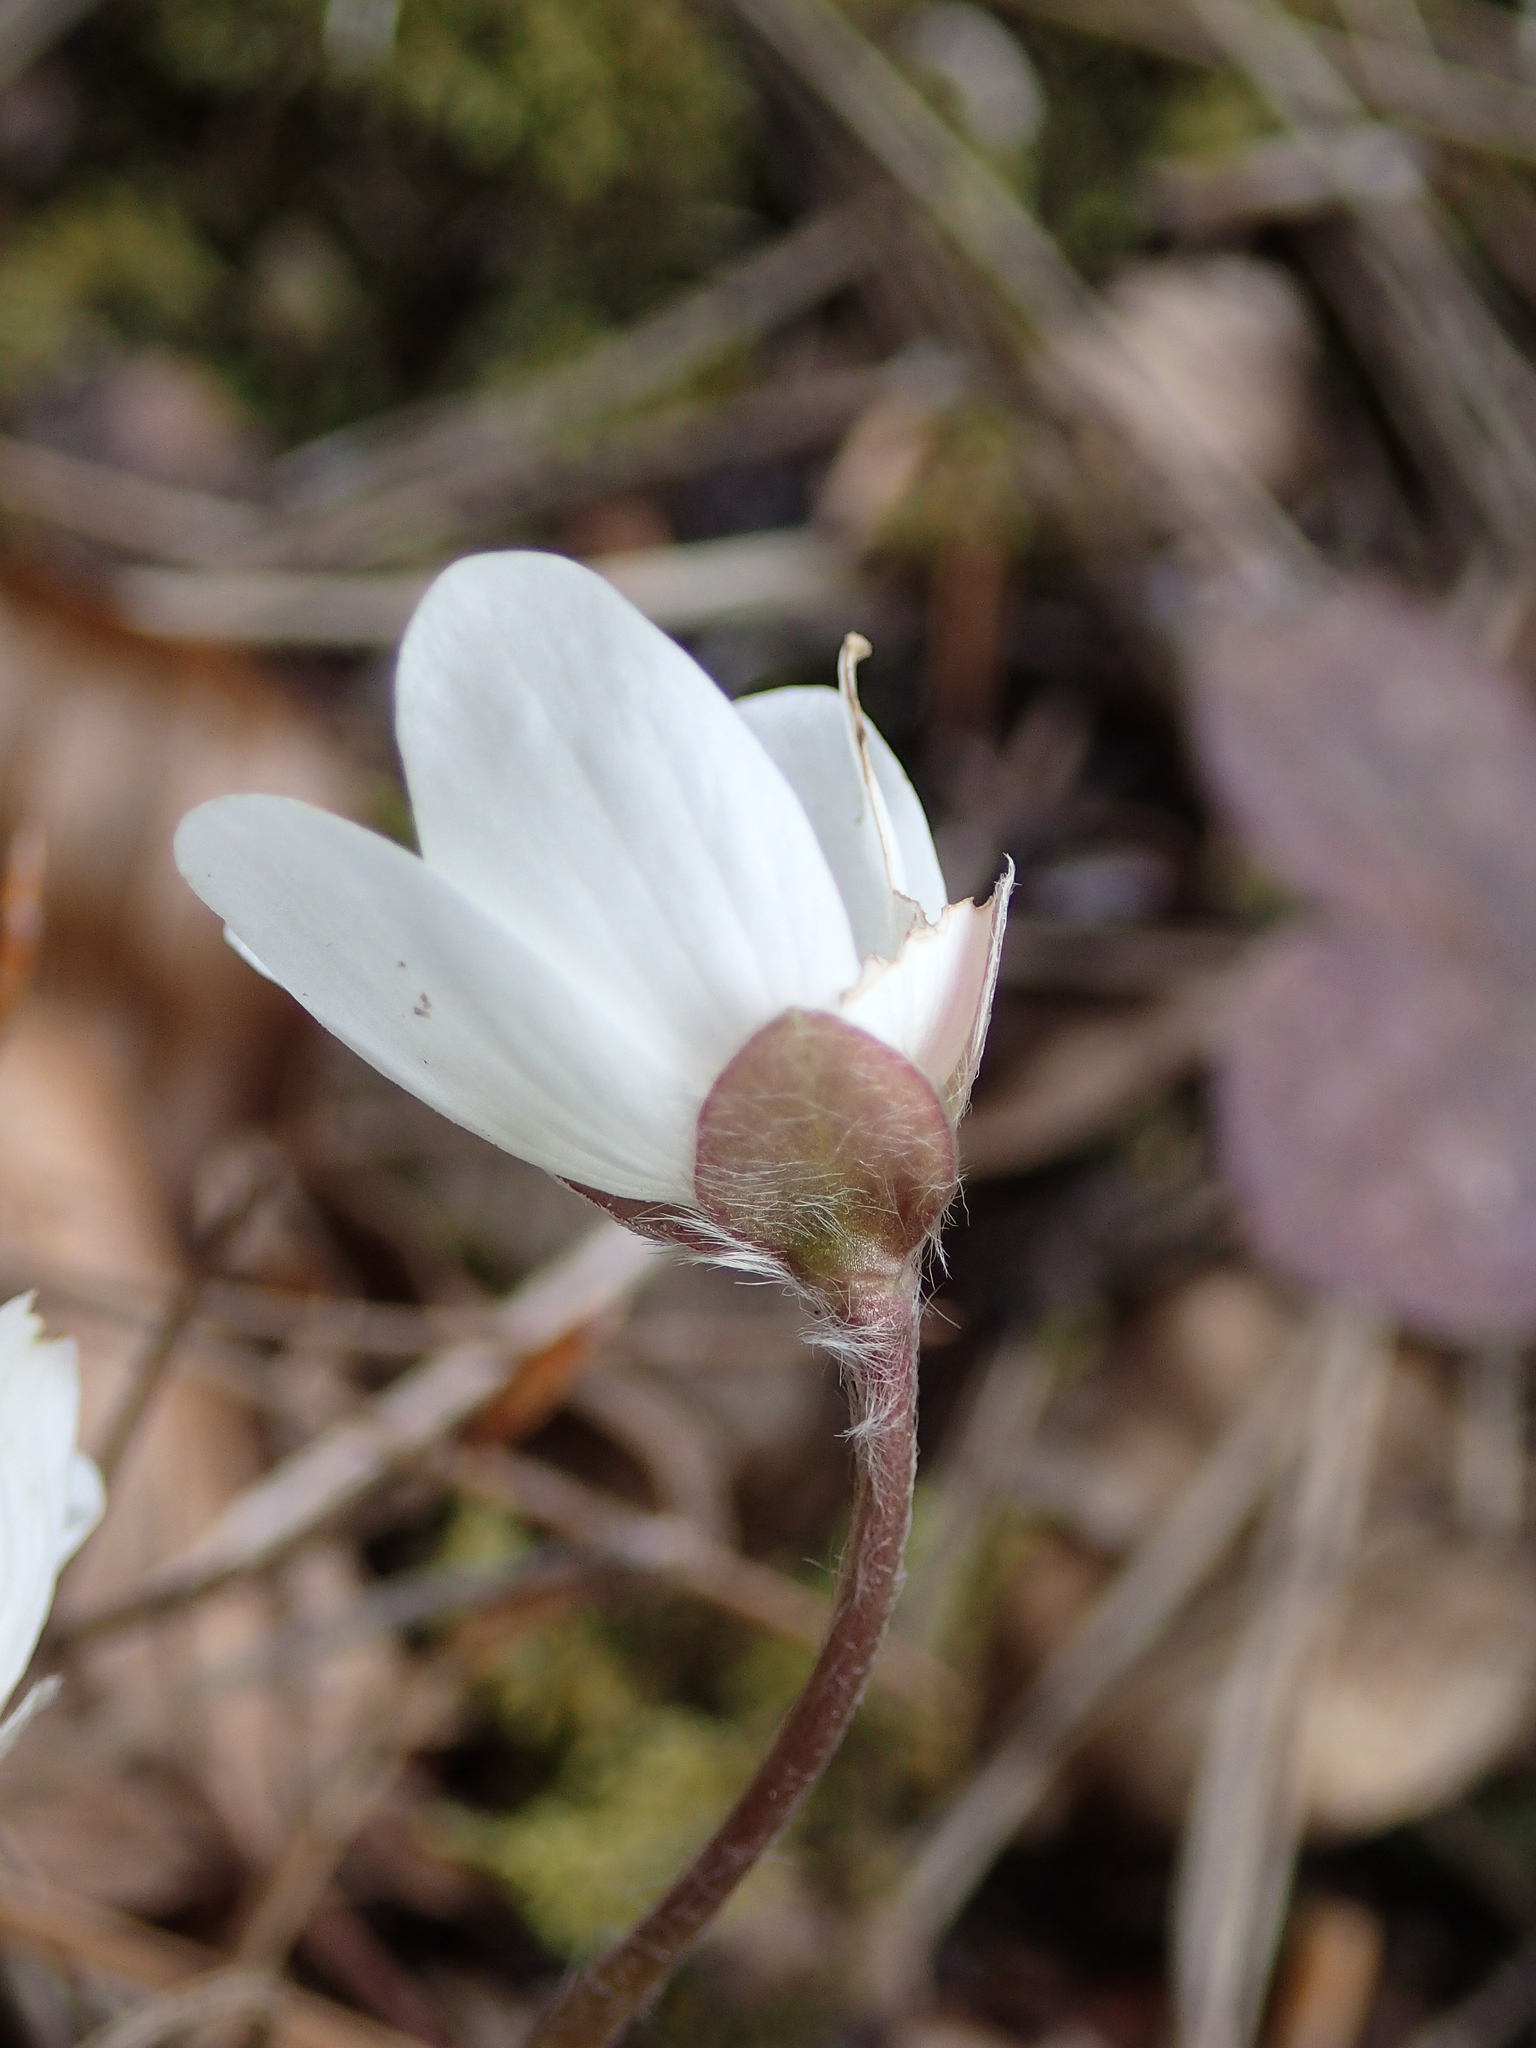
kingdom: Plantae
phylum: Tracheophyta
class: Magnoliopsida
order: Ranunculales
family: Ranunculaceae
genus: Hepatica
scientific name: Hepatica nobilis
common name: Liverleaf
